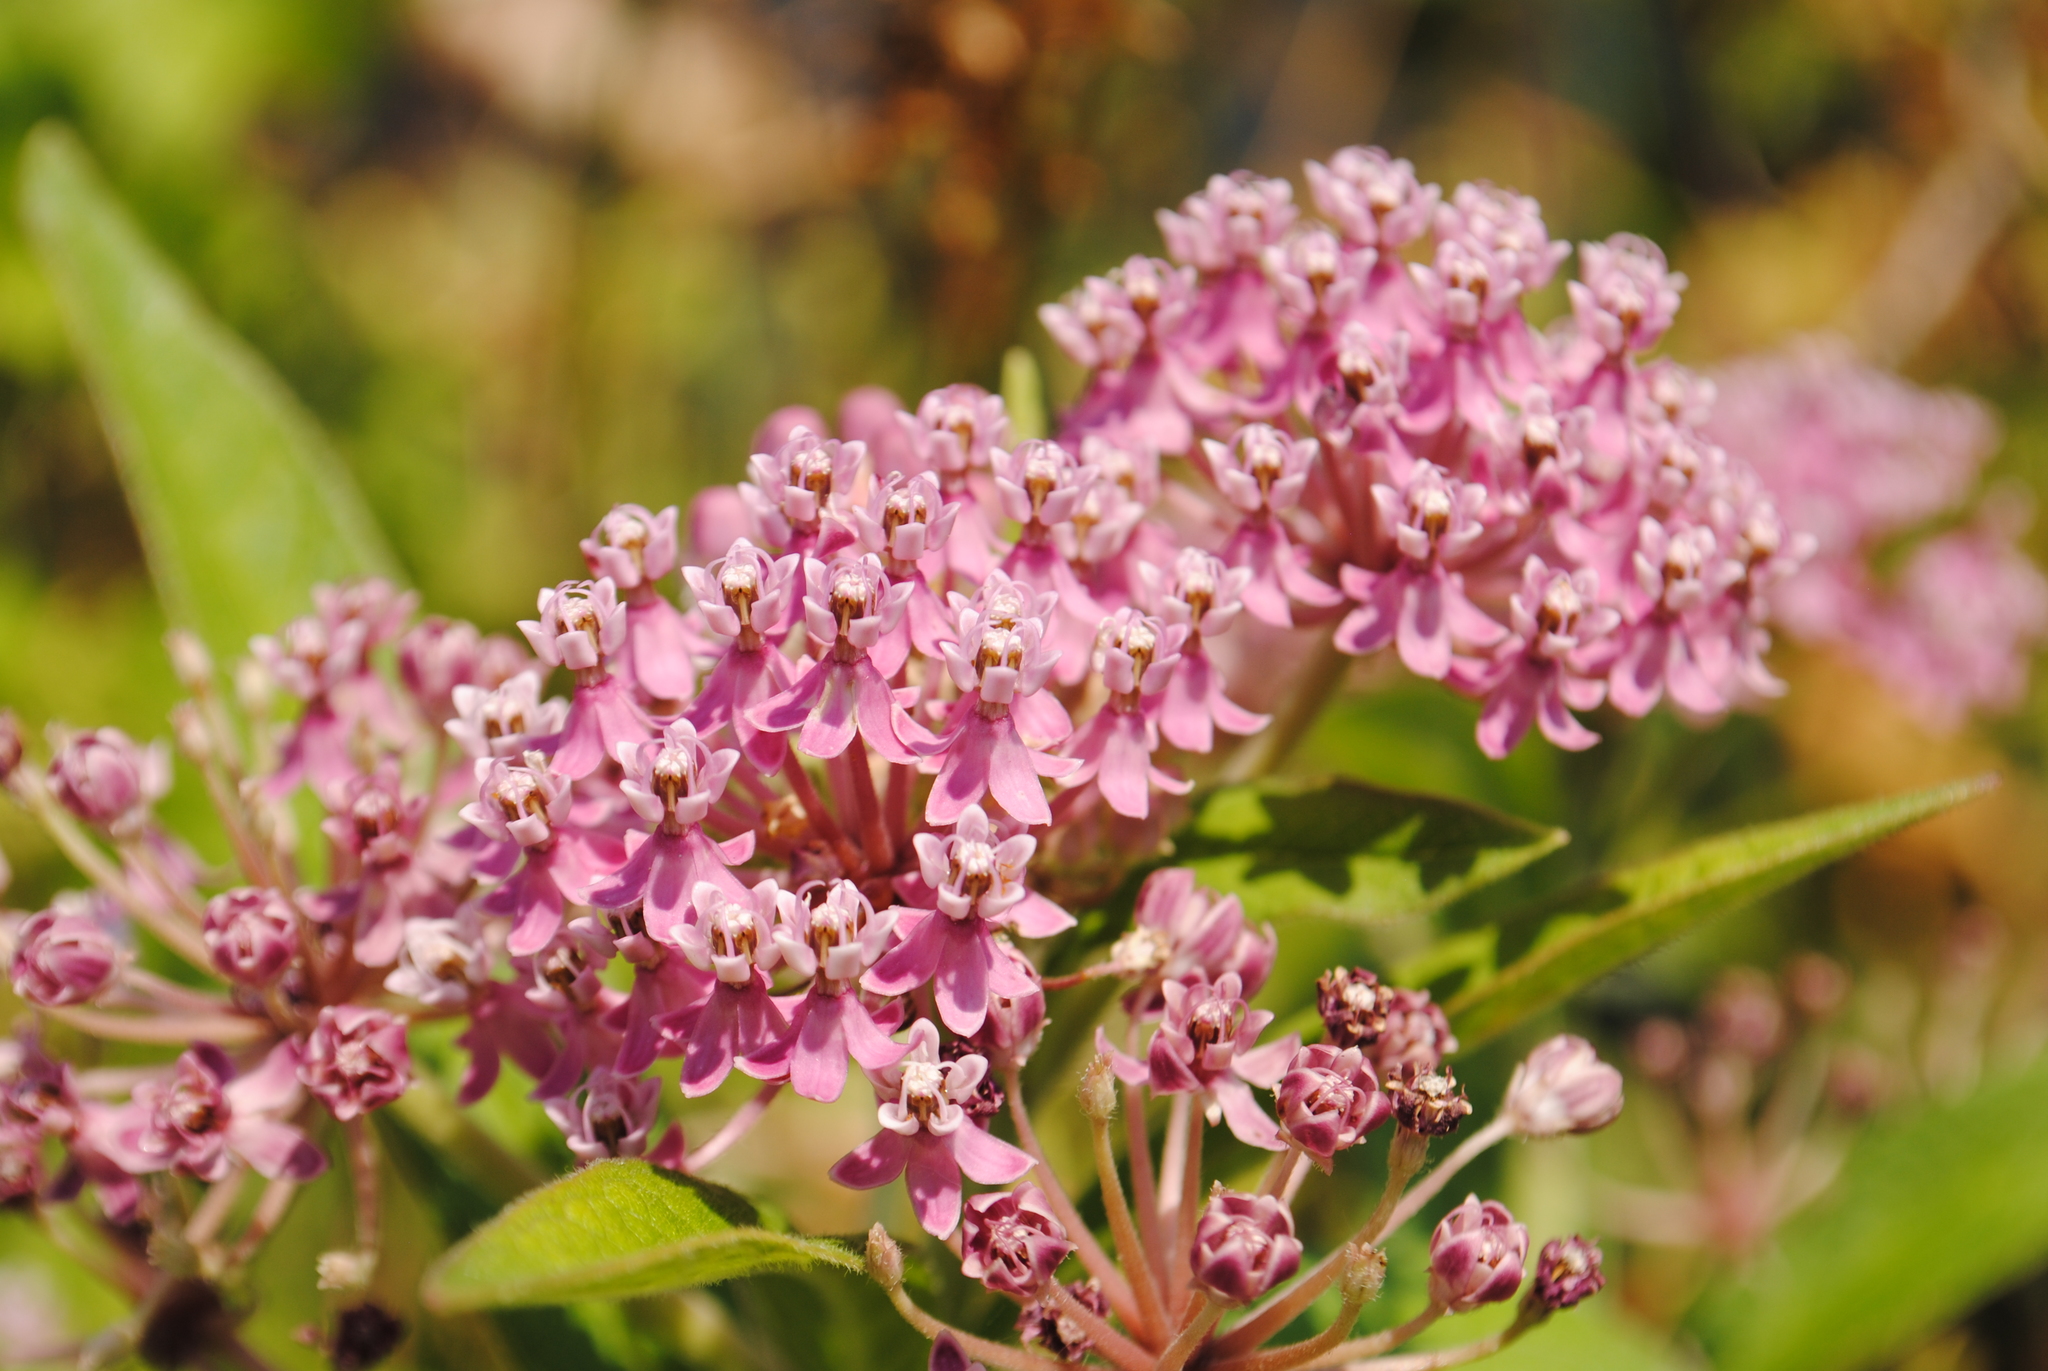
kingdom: Plantae
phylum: Tracheophyta
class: Magnoliopsida
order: Gentianales
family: Apocynaceae
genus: Asclepias
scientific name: Asclepias incarnata
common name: Swamp milkweed
